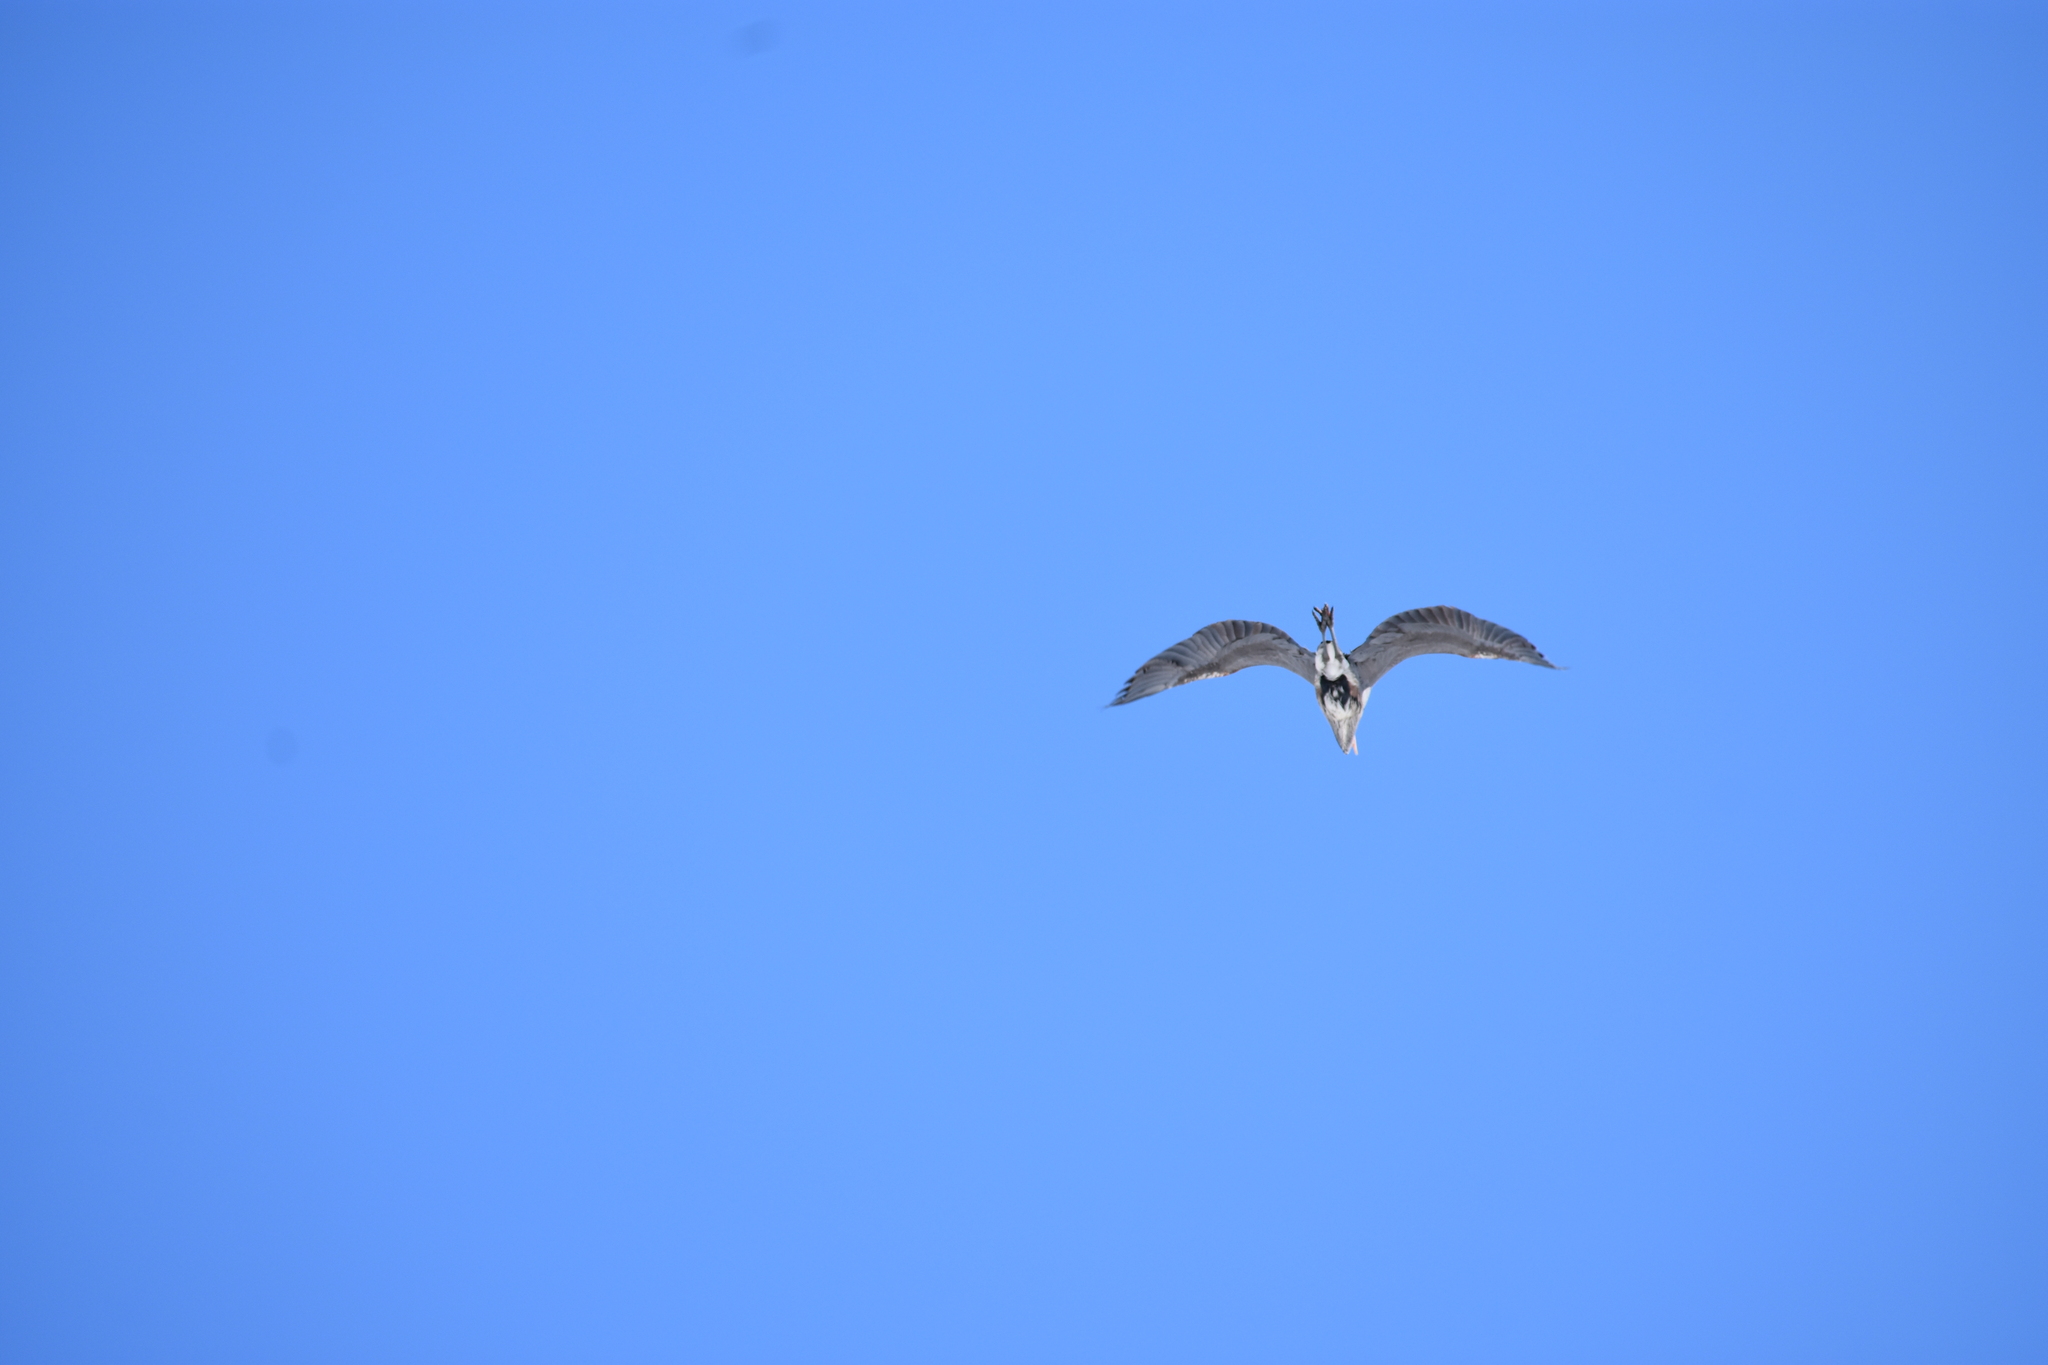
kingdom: Animalia
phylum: Chordata
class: Aves
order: Pelecaniformes
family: Ardeidae
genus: Ardea
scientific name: Ardea herodias
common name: Great blue heron
